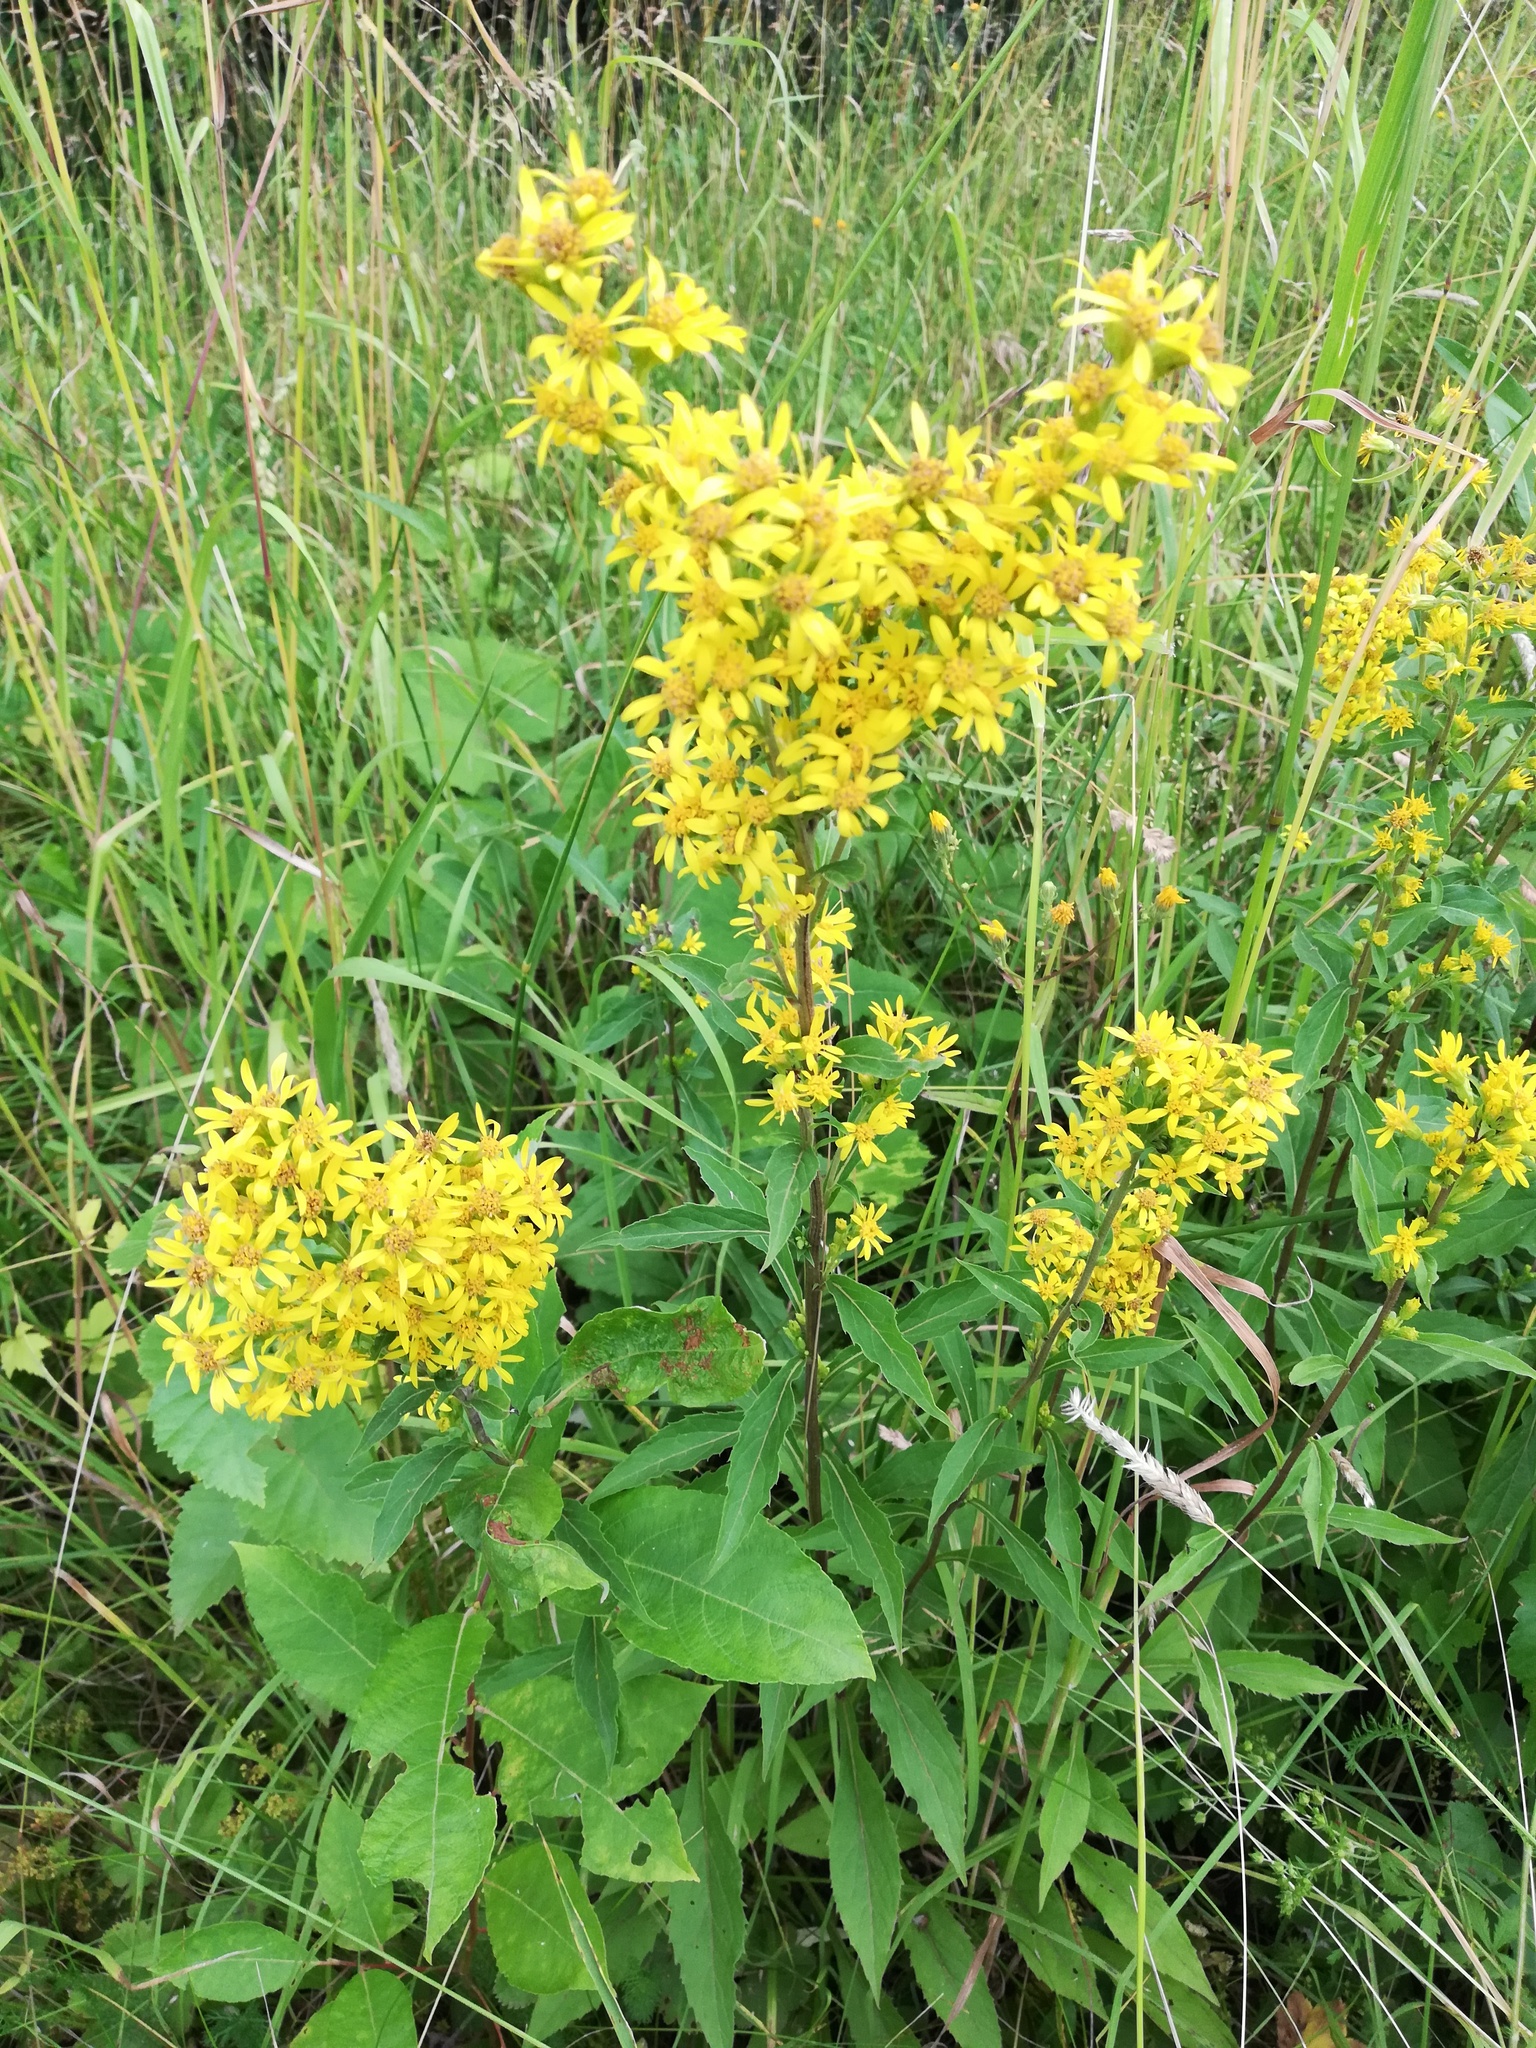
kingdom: Plantae
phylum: Tracheophyta
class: Magnoliopsida
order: Asterales
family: Asteraceae
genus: Solidago
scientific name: Solidago virgaurea
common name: Goldenrod
